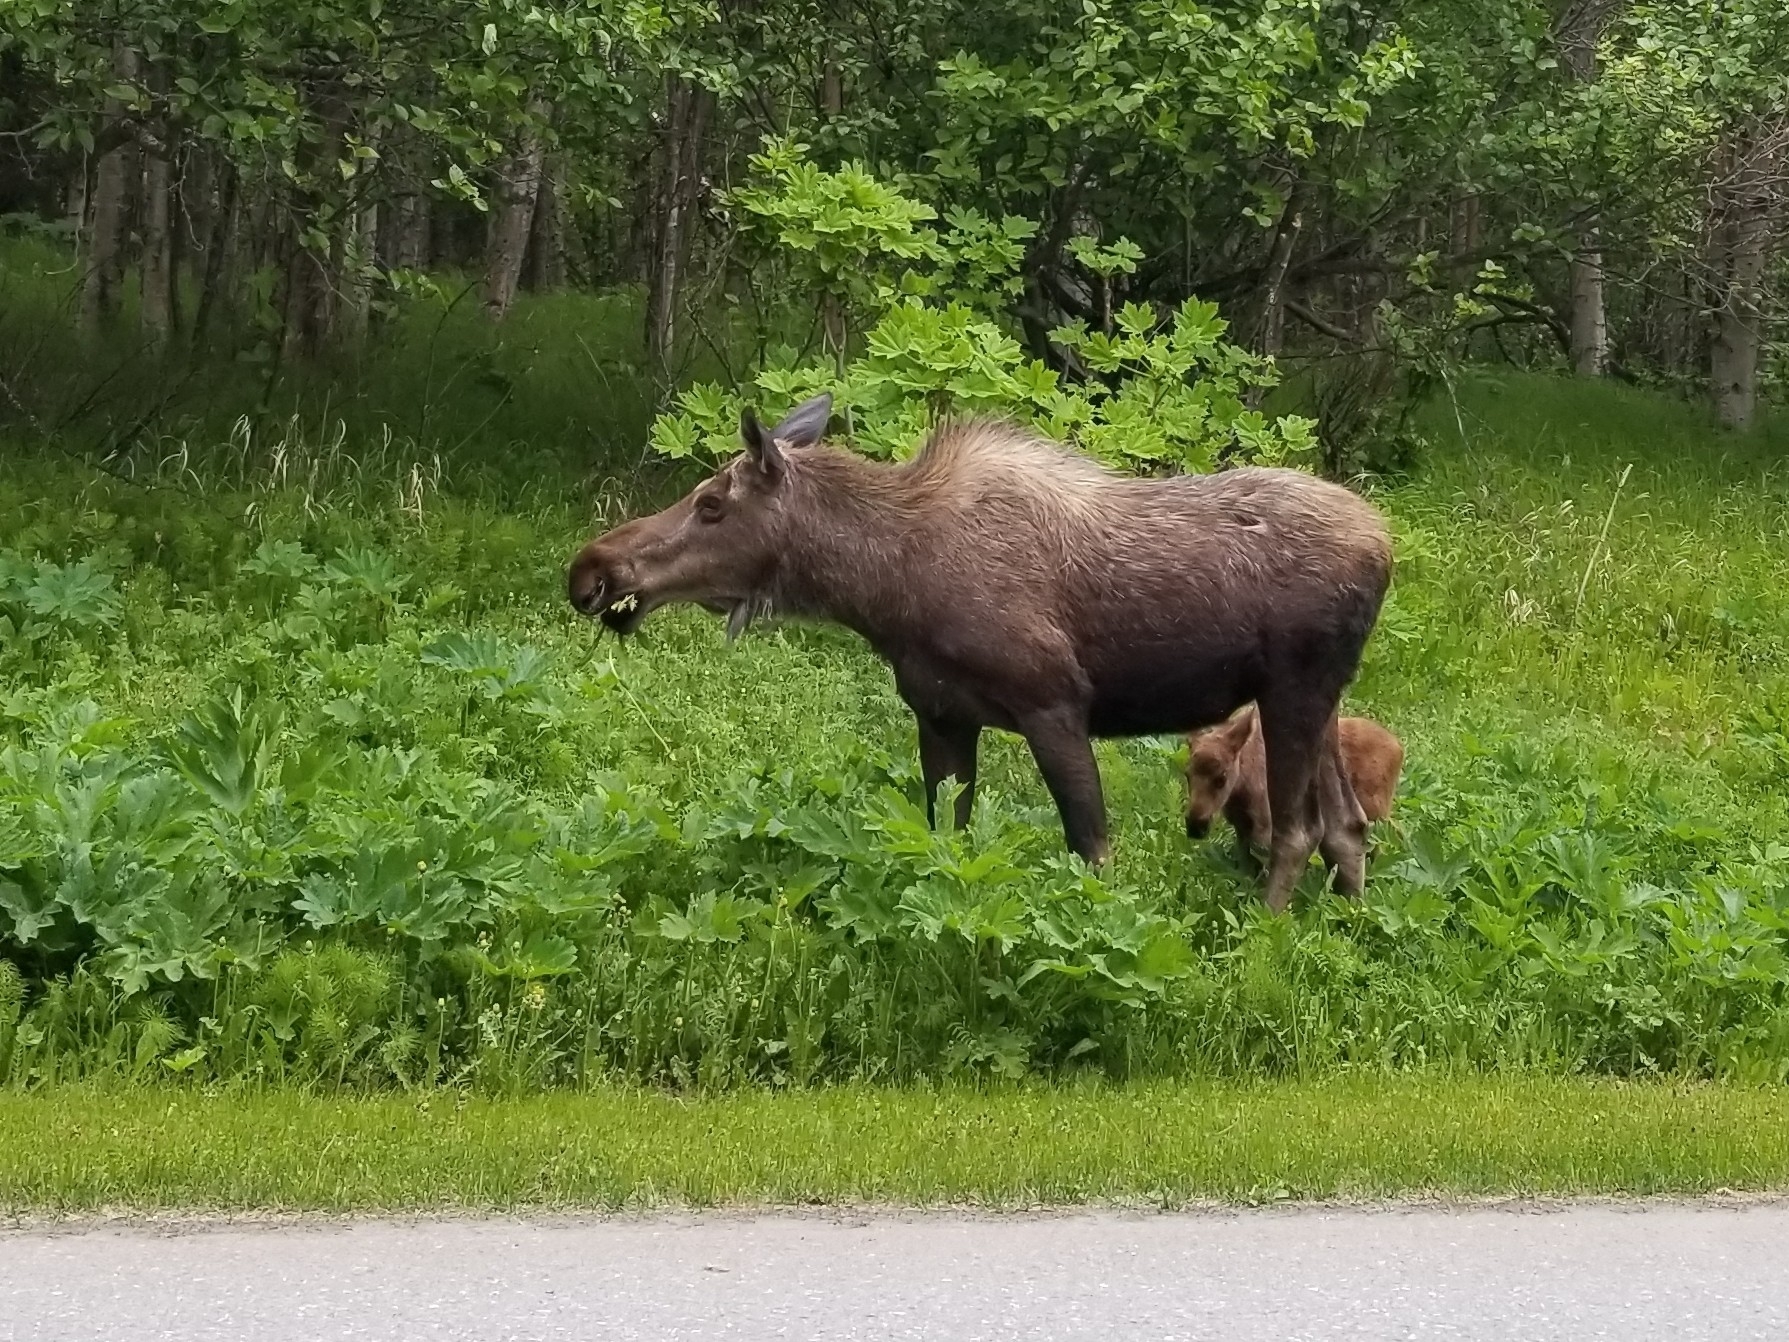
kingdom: Animalia
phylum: Chordata
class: Mammalia
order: Artiodactyla
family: Cervidae
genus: Alces
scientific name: Alces alces
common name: Moose
